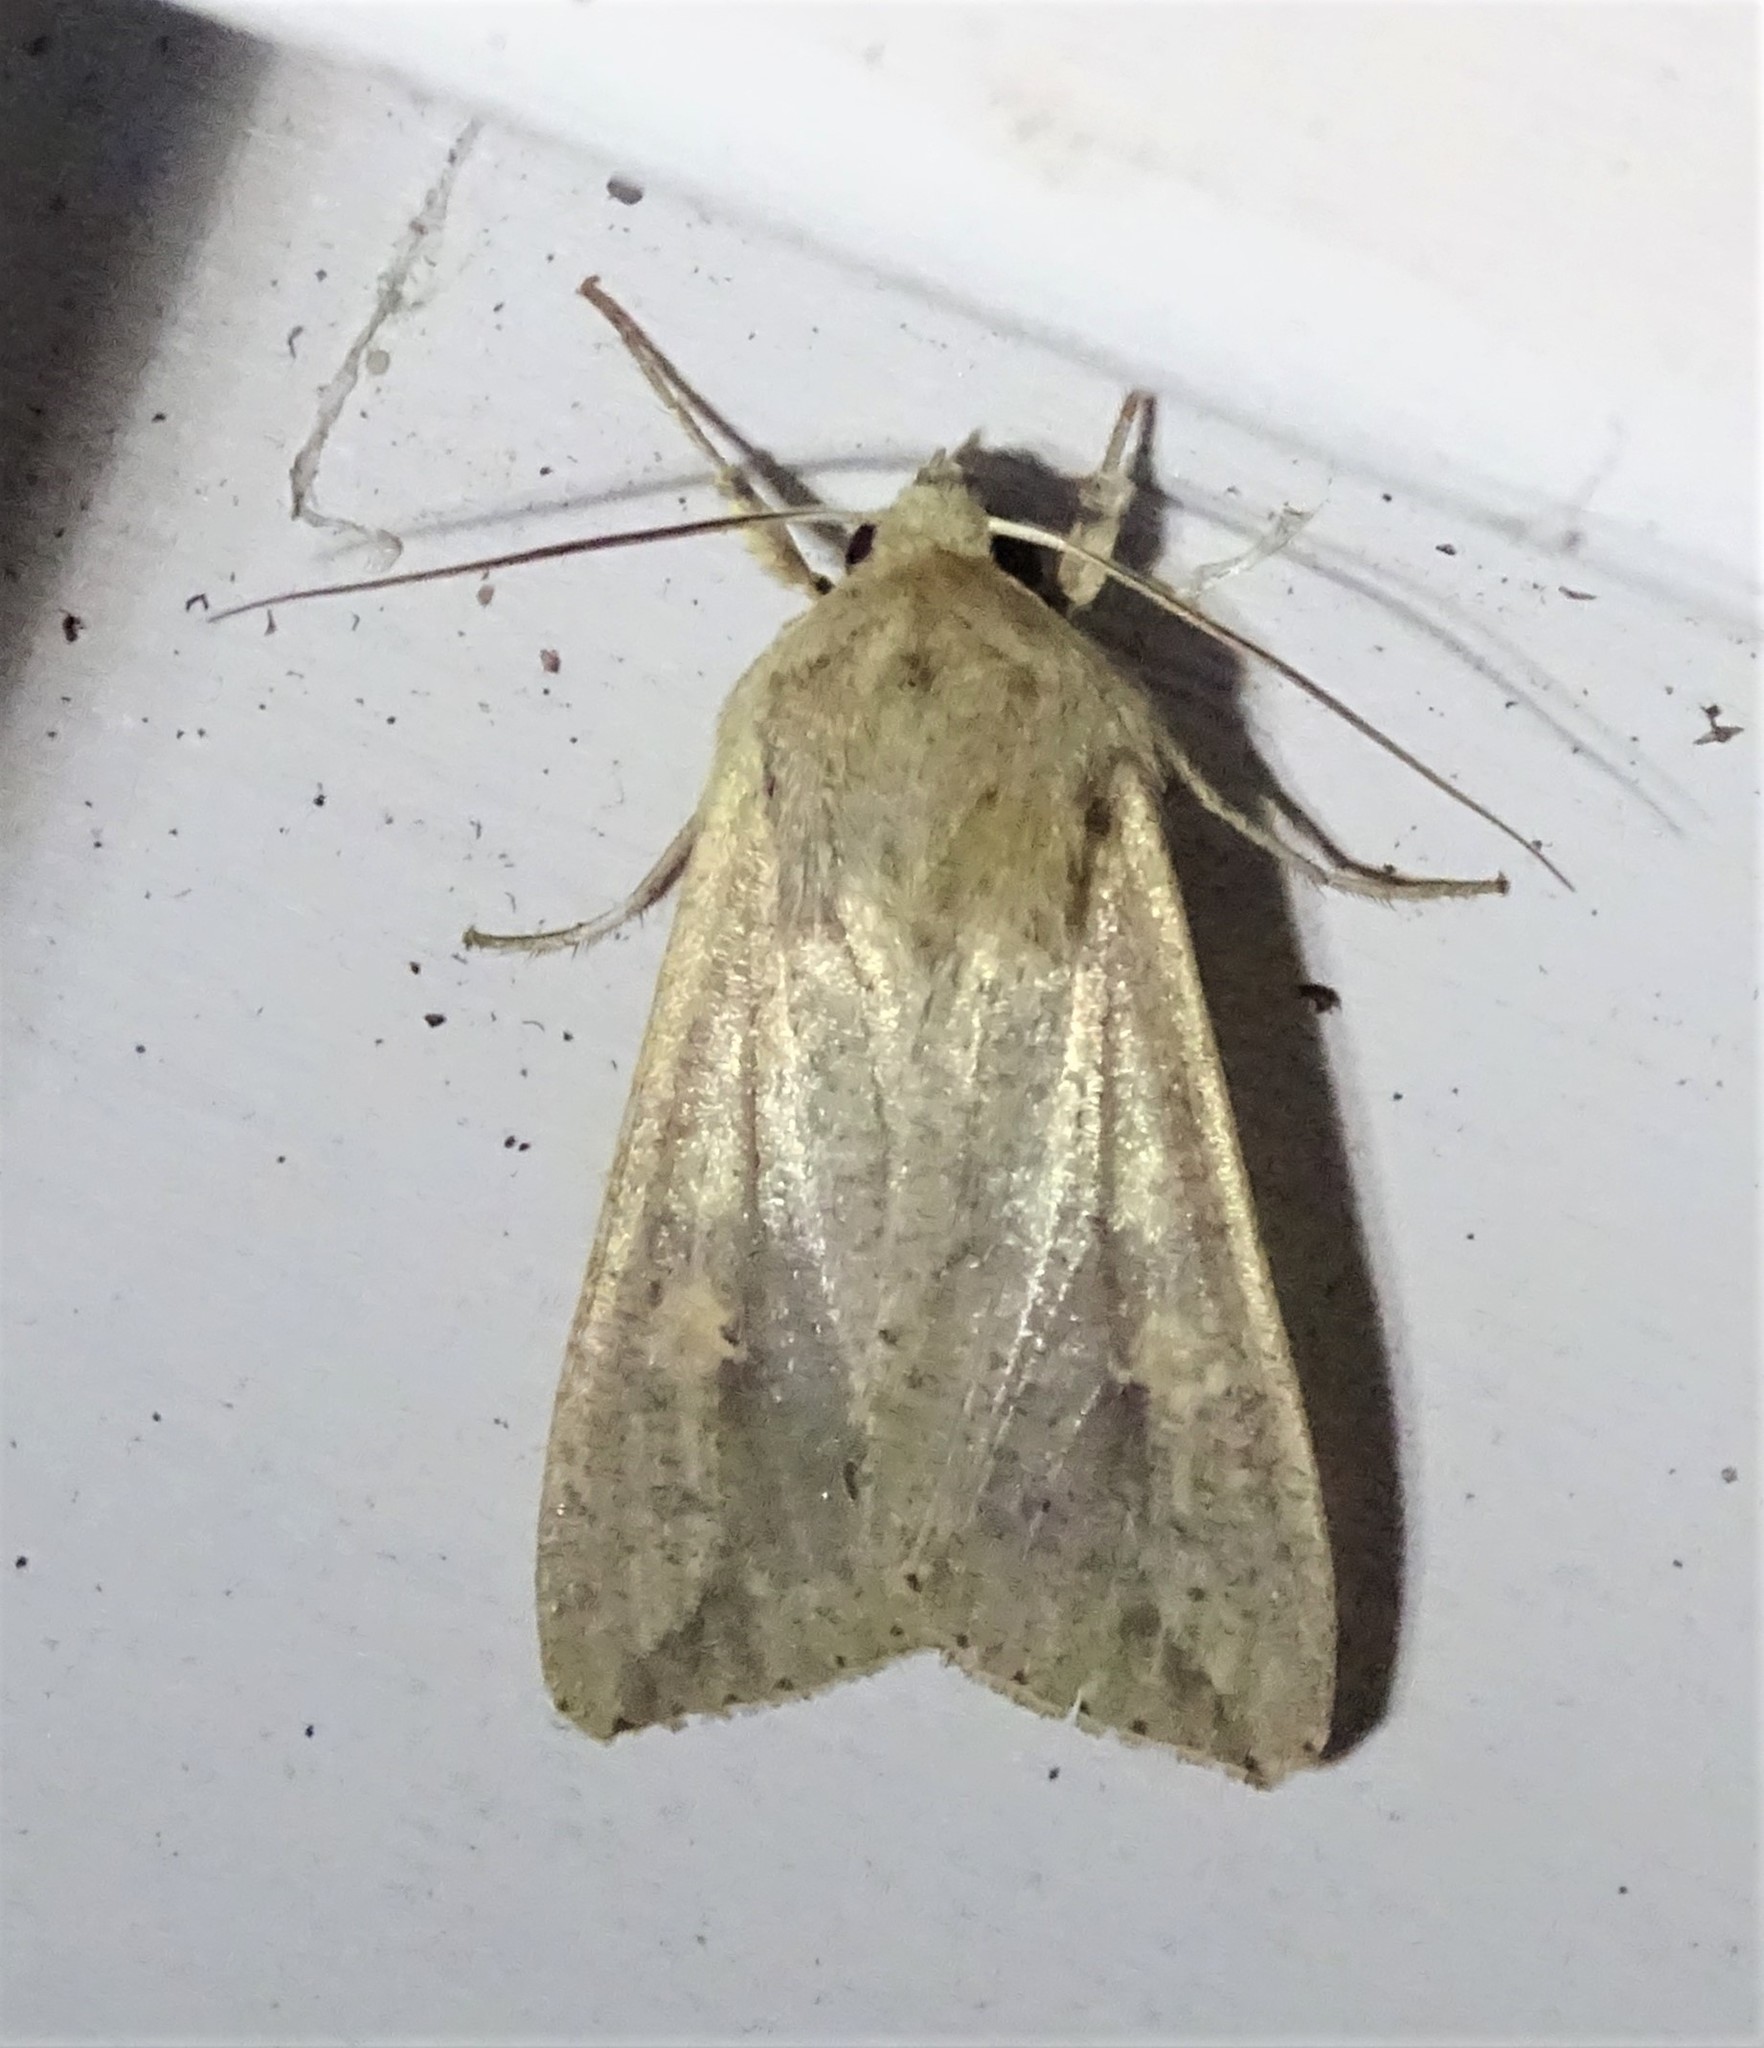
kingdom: Animalia
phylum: Arthropoda
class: Insecta
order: Lepidoptera
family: Noctuidae
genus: Mythimna
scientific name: Mythimna unipuncta
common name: White-speck
